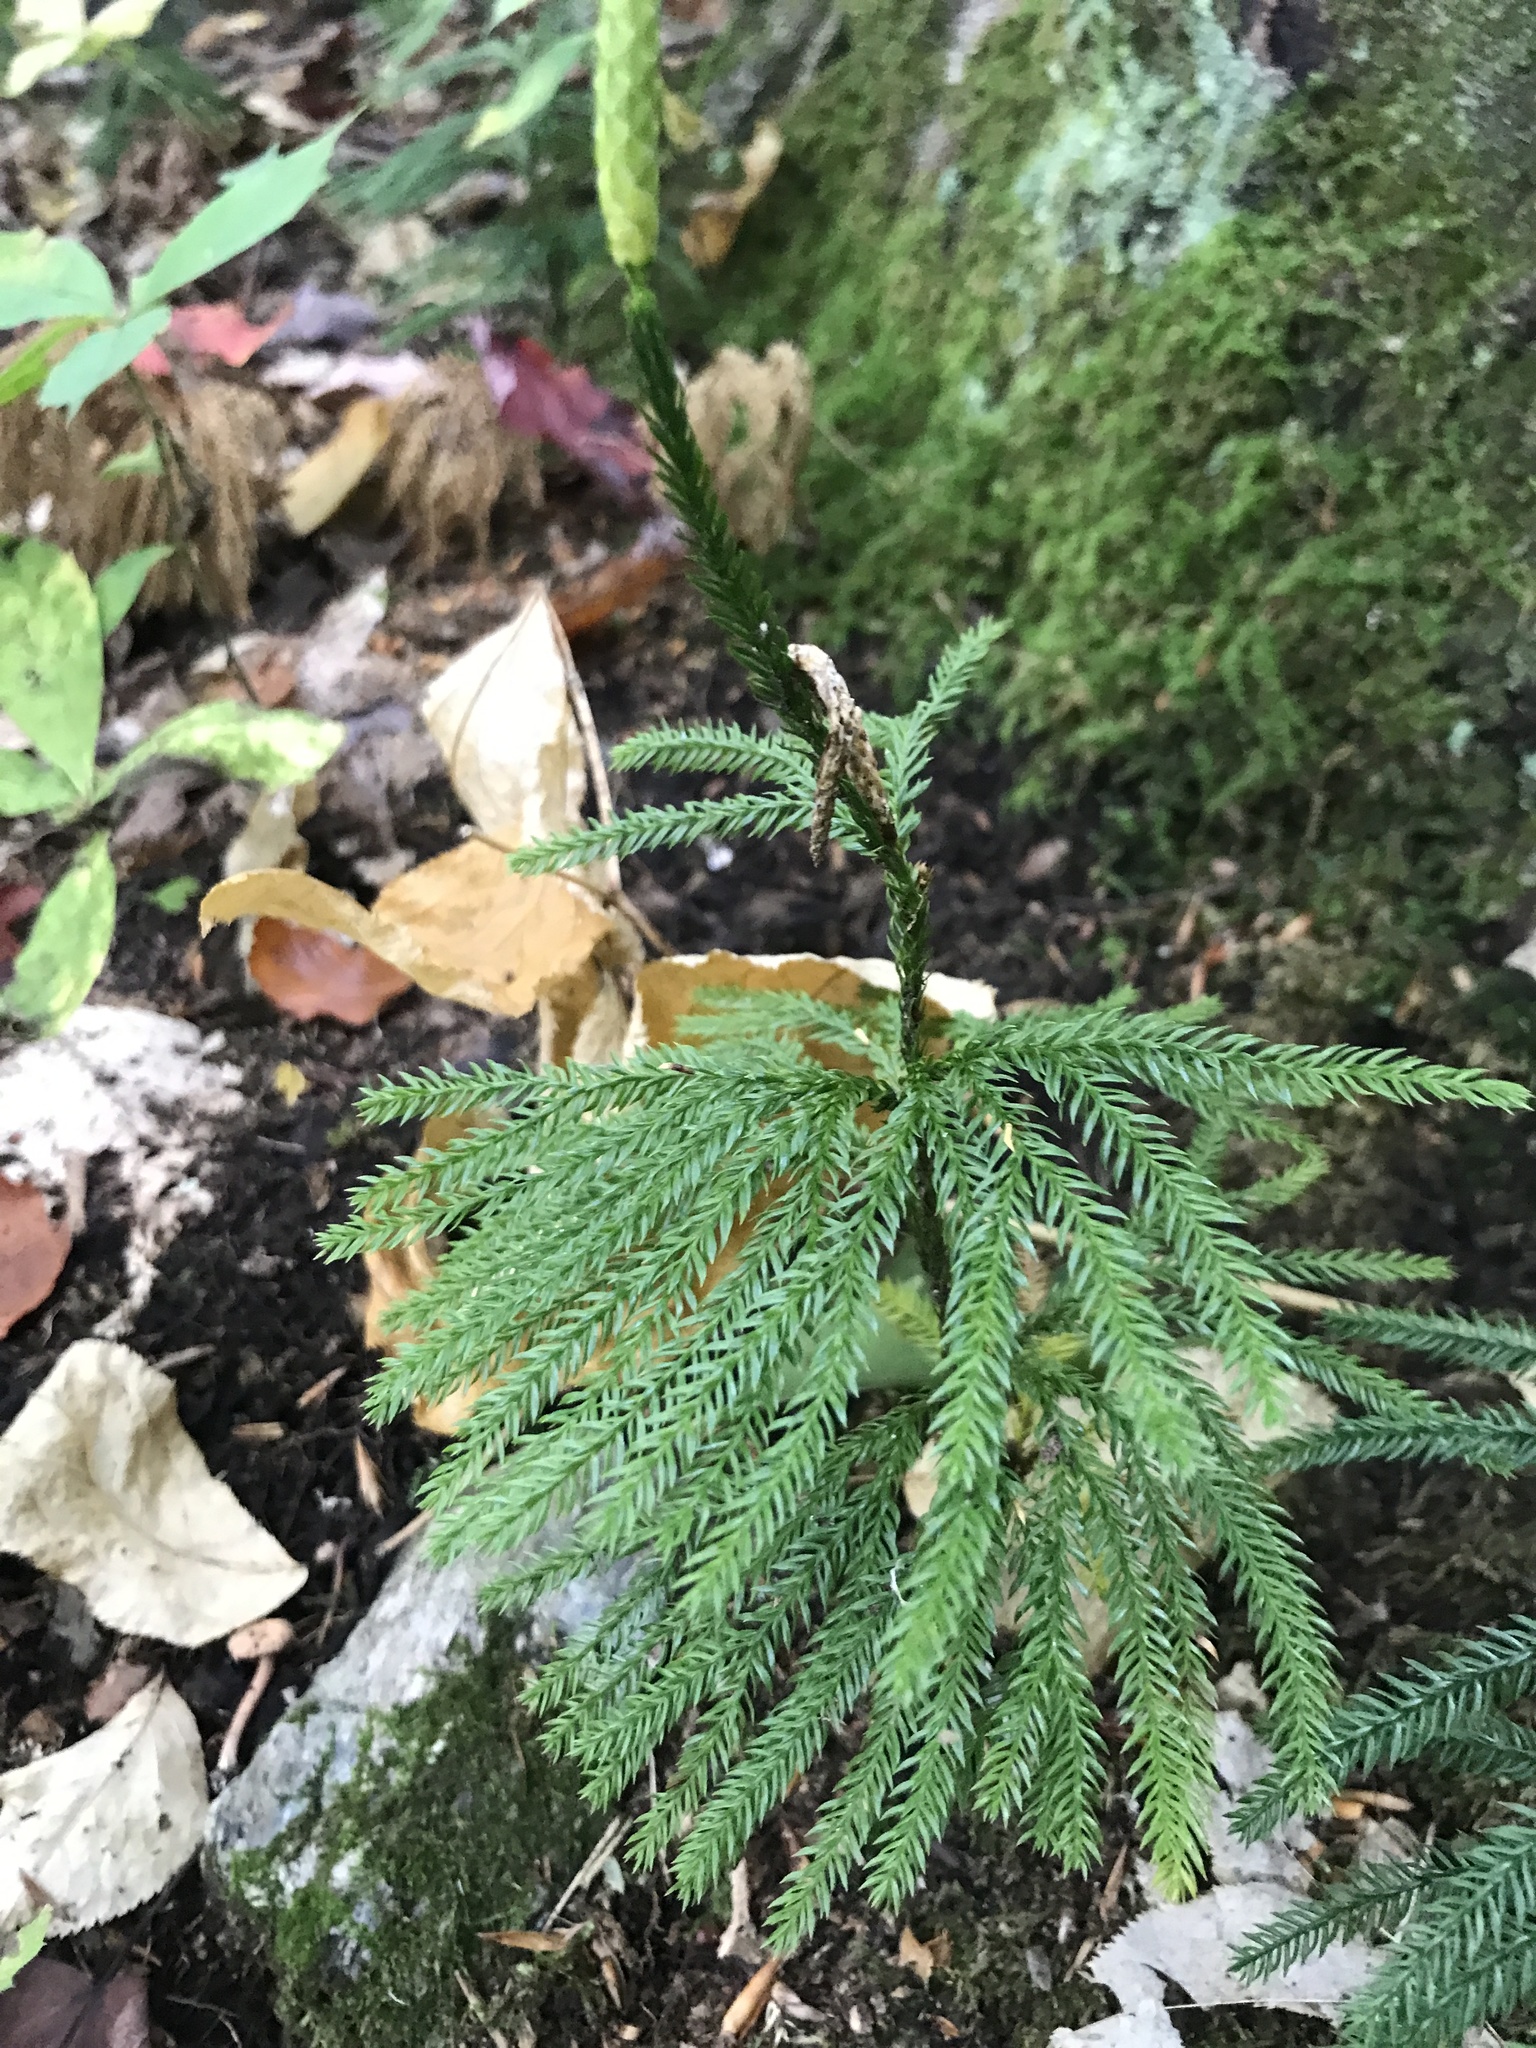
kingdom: Plantae
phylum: Tracheophyta
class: Lycopodiopsida
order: Lycopodiales
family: Lycopodiaceae
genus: Dendrolycopodium
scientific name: Dendrolycopodium obscurum
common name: Common ground-pine
